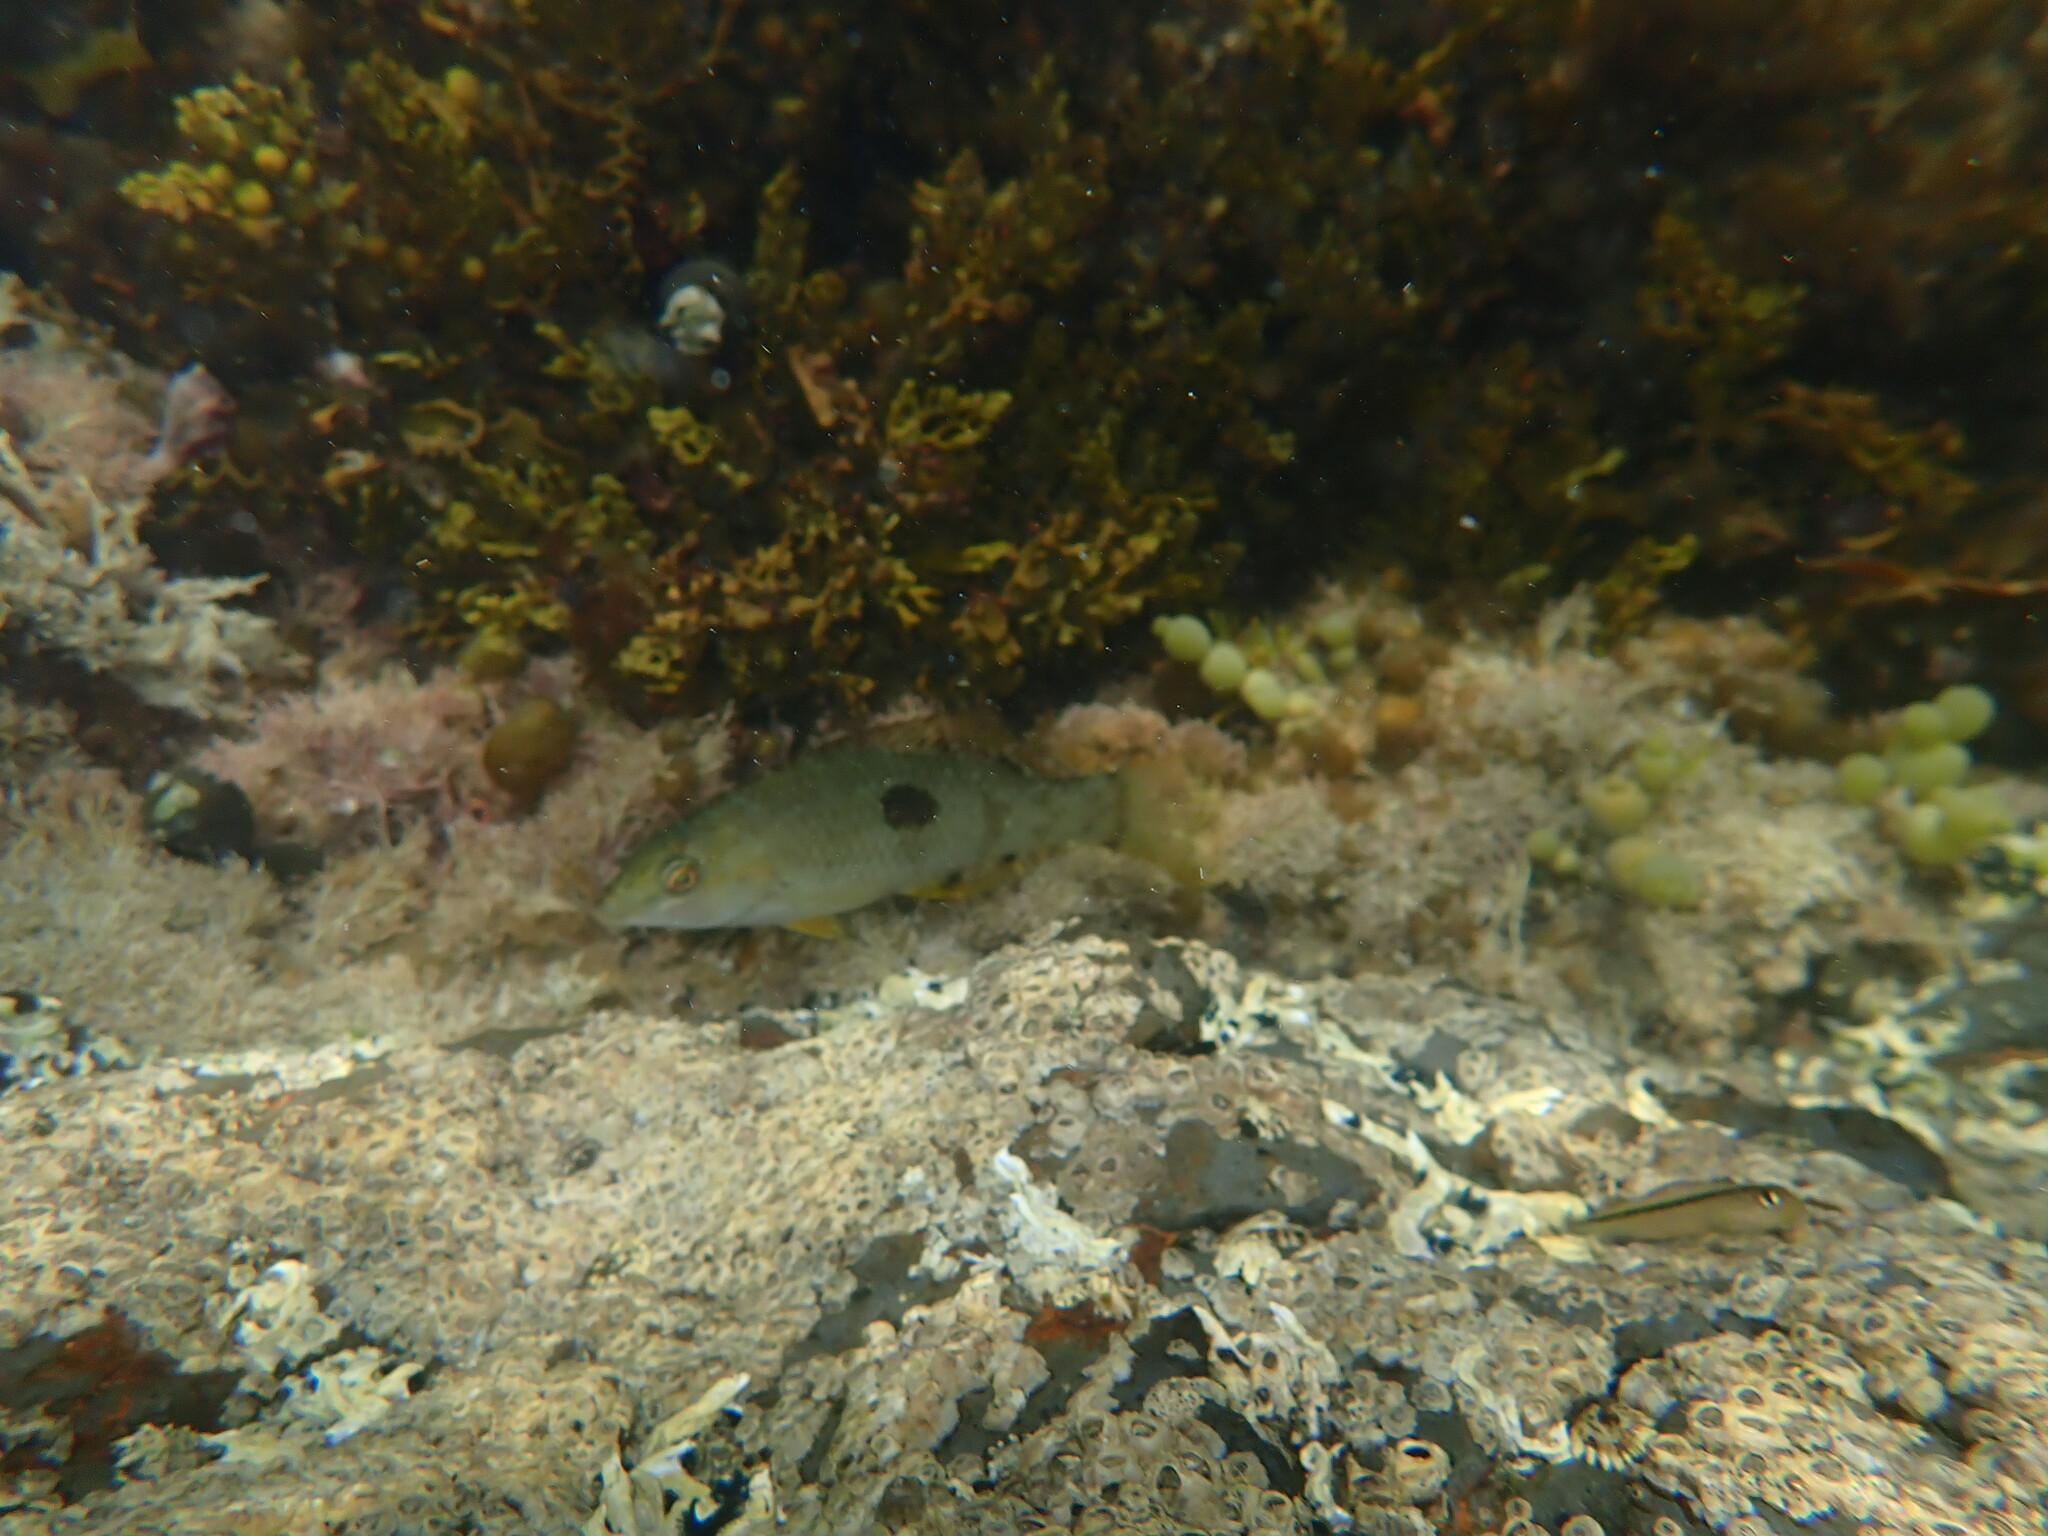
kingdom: Animalia
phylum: Chordata
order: Perciformes
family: Labridae
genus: Notolabrus
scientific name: Notolabrus celidotus
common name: Spotty
